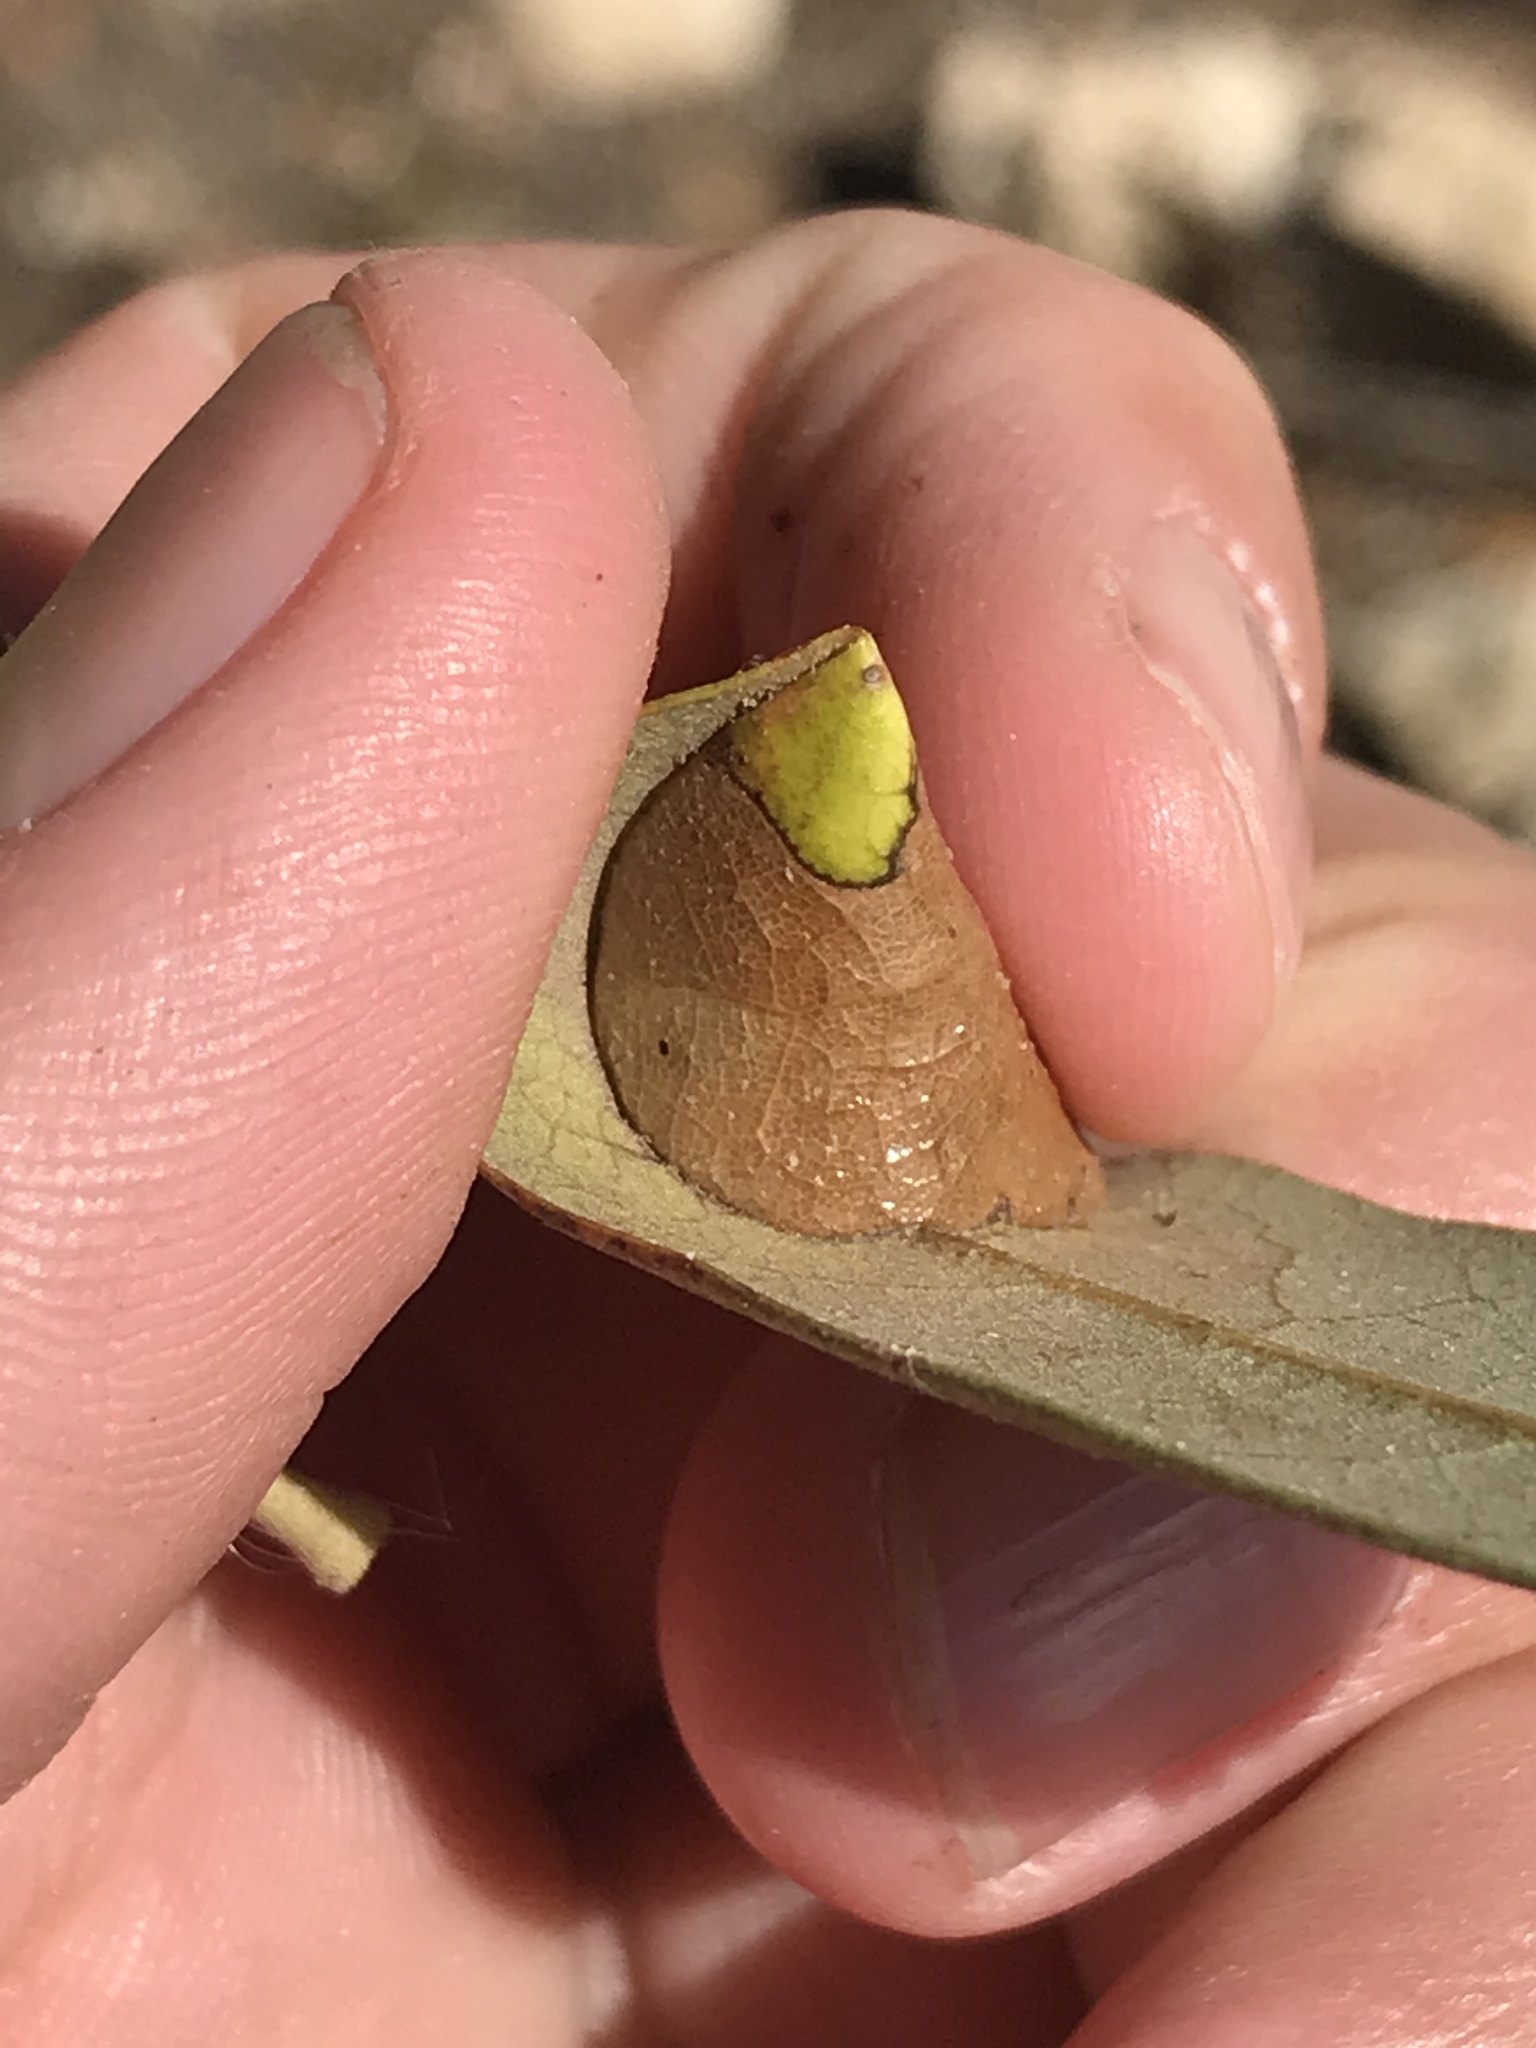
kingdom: Animalia
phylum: Arthropoda
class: Insecta
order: Lepidoptera
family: Gracillariidae
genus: Povolnya
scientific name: Povolnya quercinigrella
